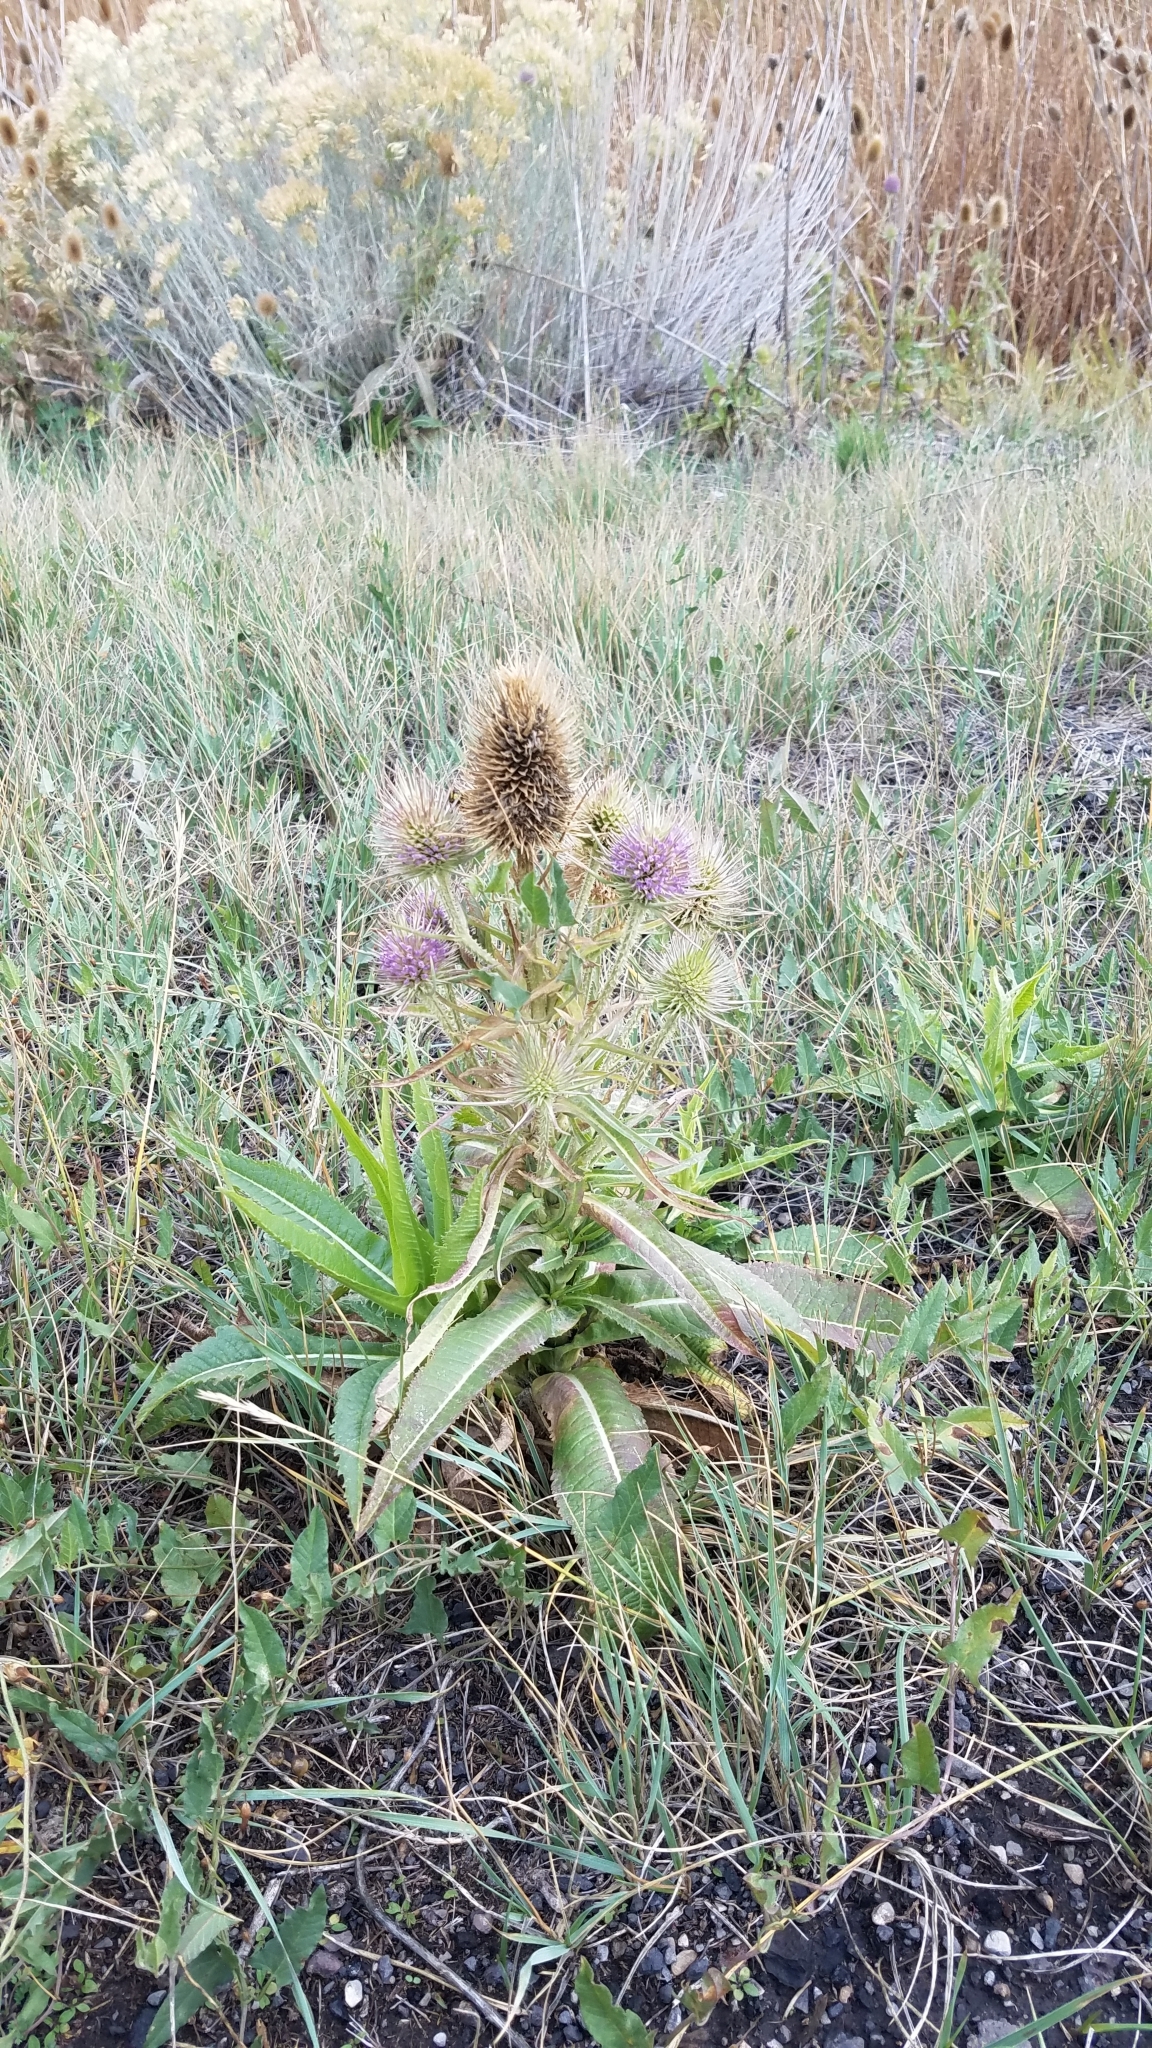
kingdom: Plantae
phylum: Tracheophyta
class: Magnoliopsida
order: Dipsacales
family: Caprifoliaceae
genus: Dipsacus
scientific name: Dipsacus fullonum
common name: Teasel
